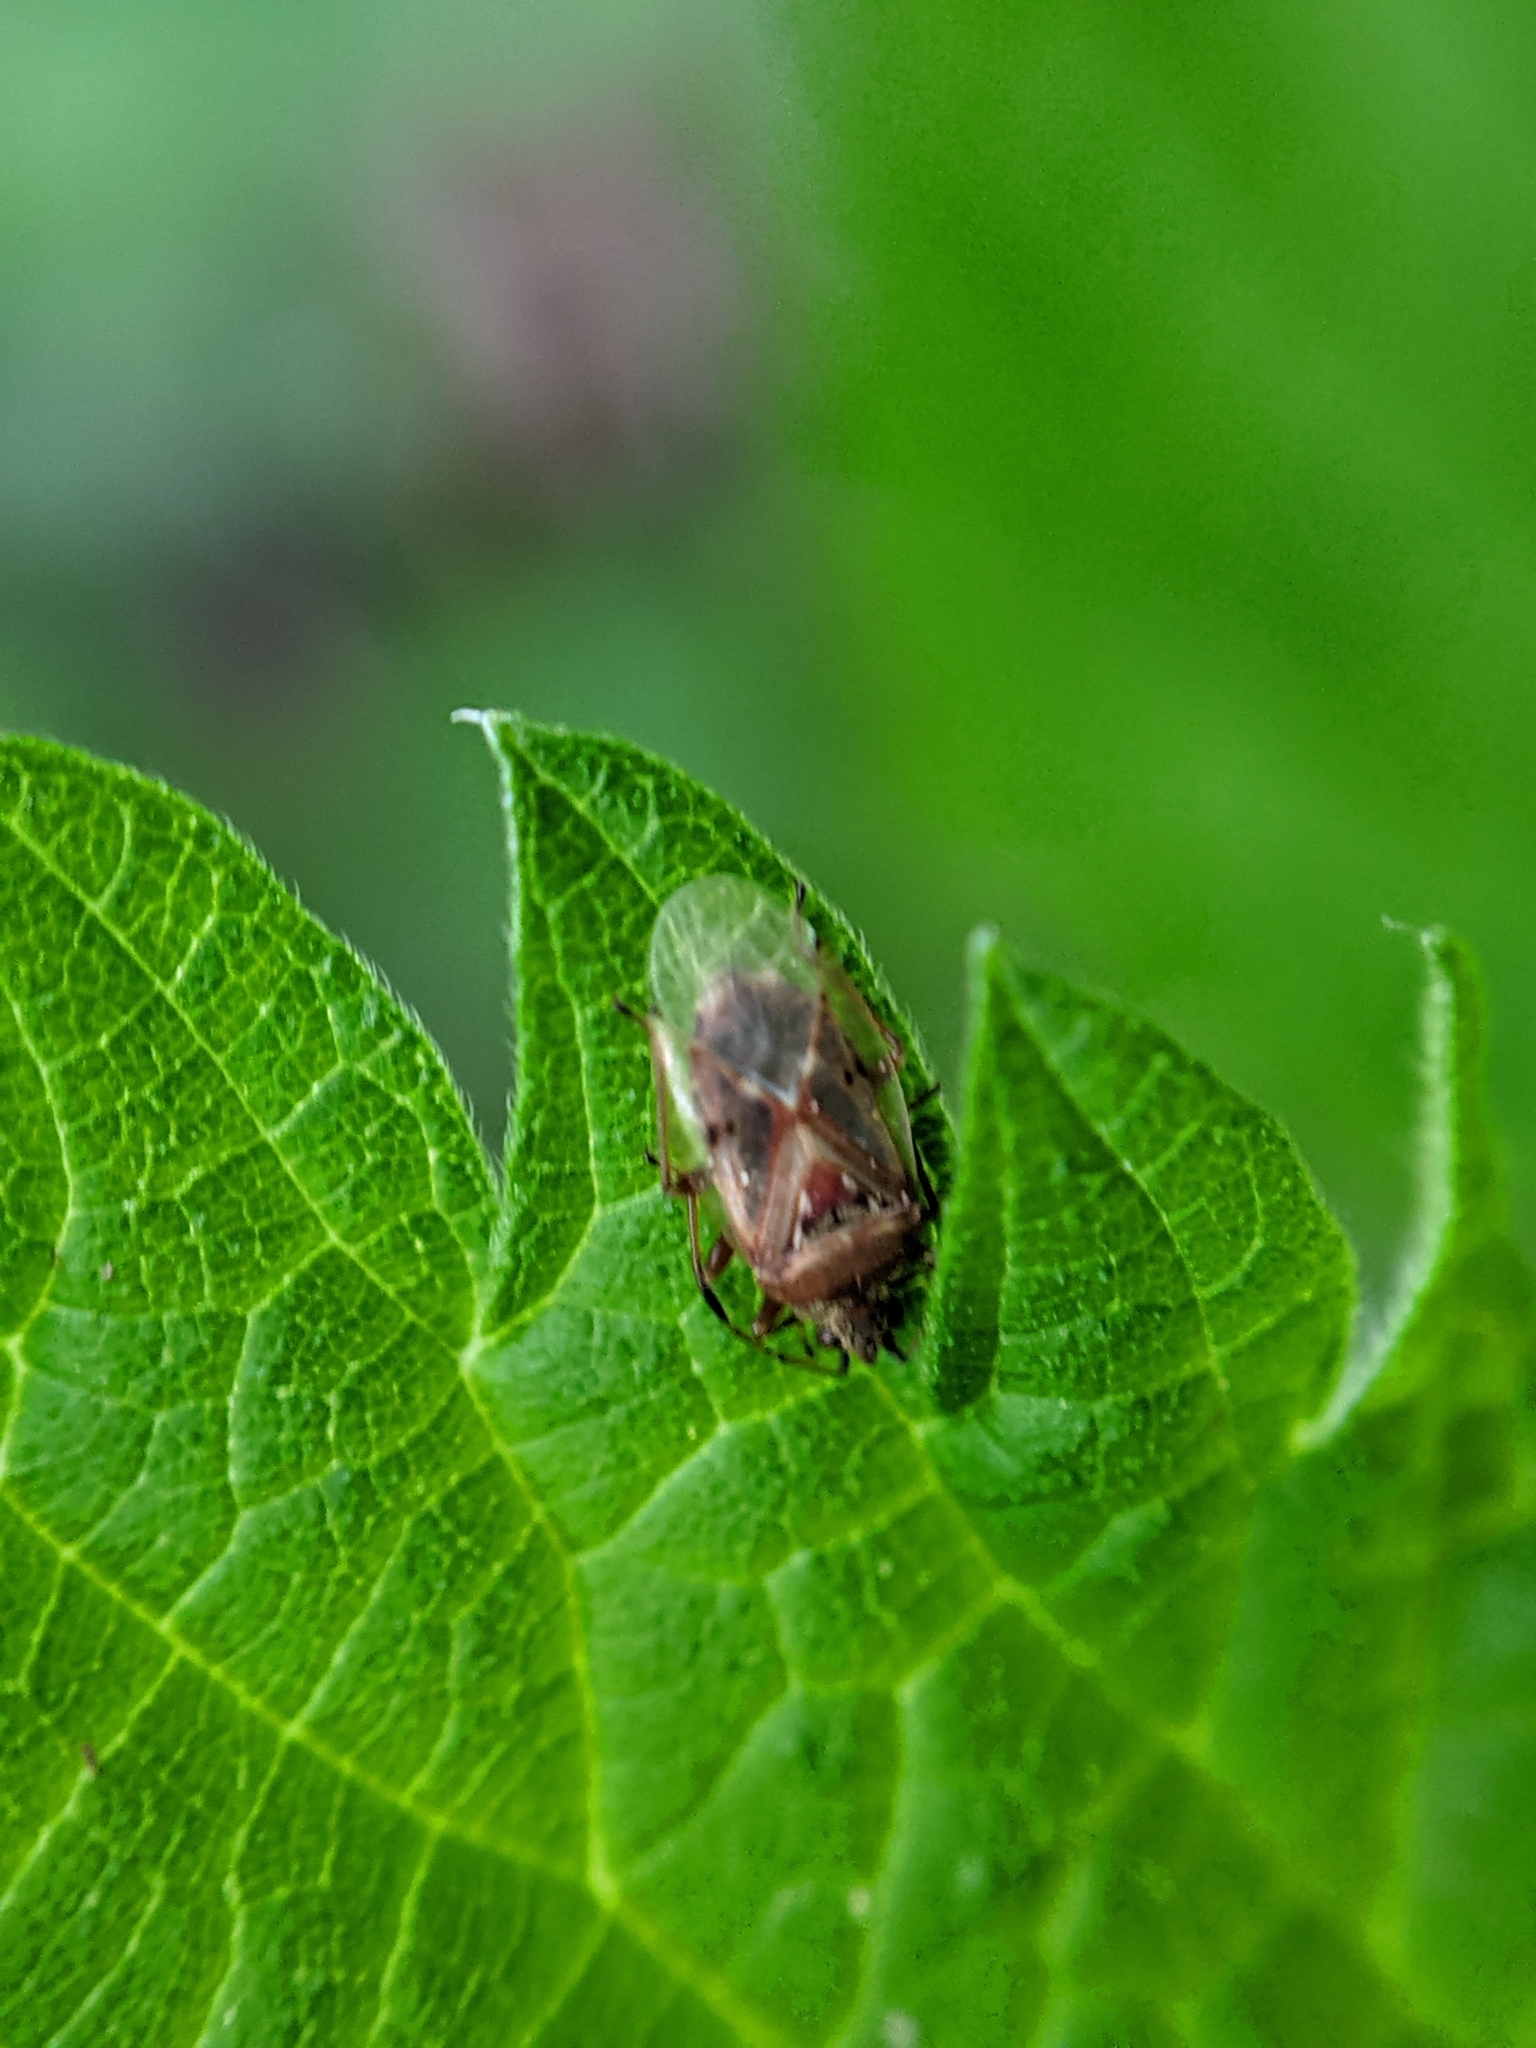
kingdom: Animalia
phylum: Arthropoda
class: Insecta
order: Hemiptera
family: Lygaeidae
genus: Kleidocerys
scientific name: Kleidocerys resedae
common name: Birch catkin bug
